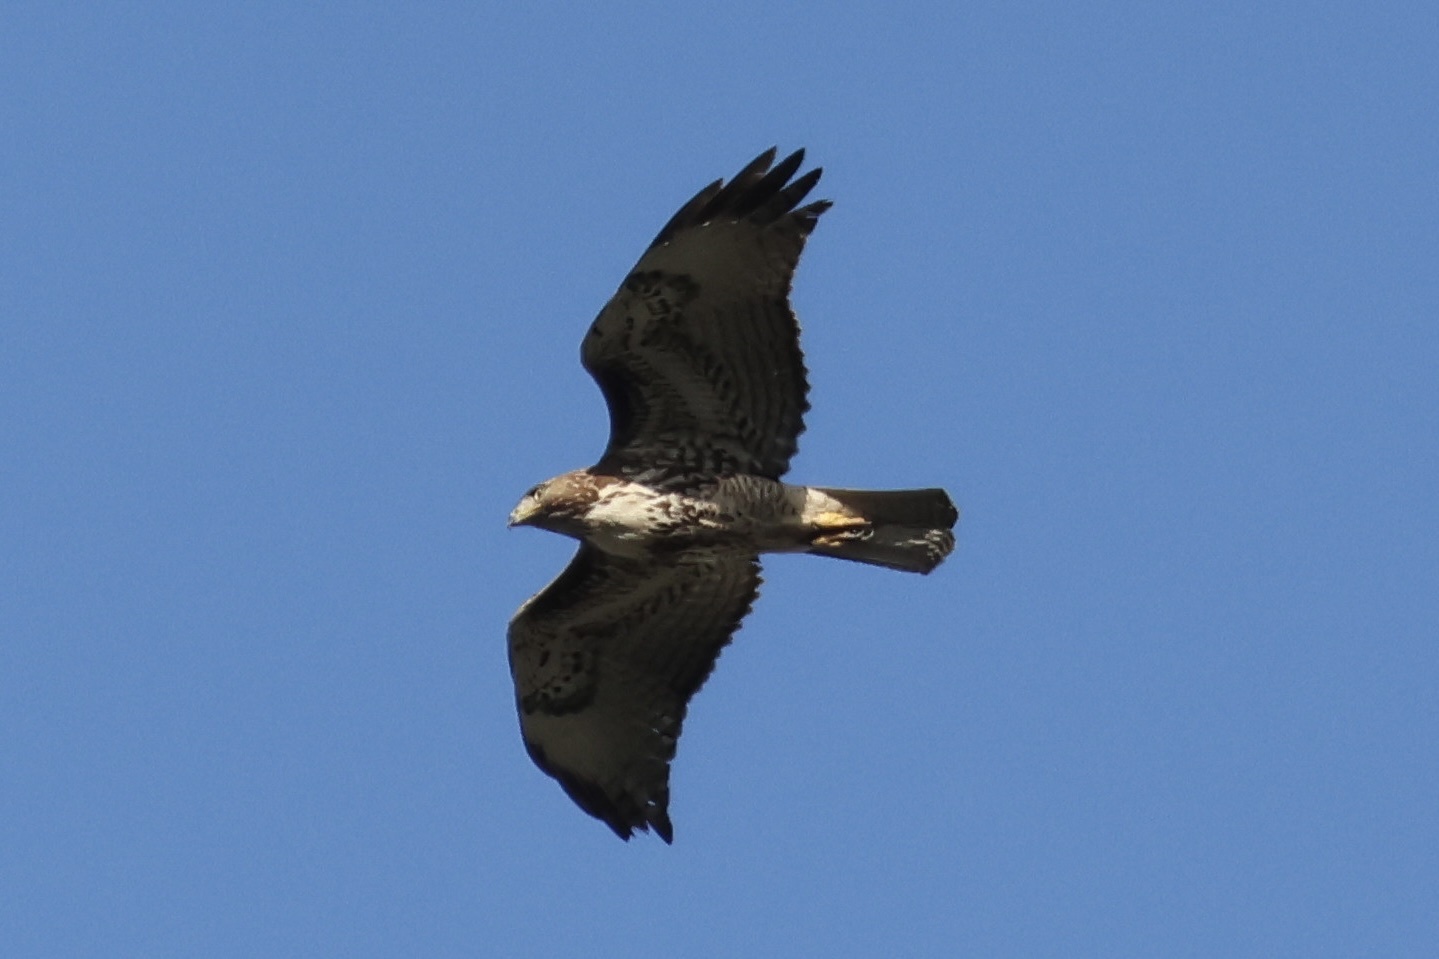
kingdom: Animalia
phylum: Chordata
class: Aves
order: Accipitriformes
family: Accipitridae
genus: Buteo
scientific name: Buteo jamaicensis
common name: Red-tailed hawk
